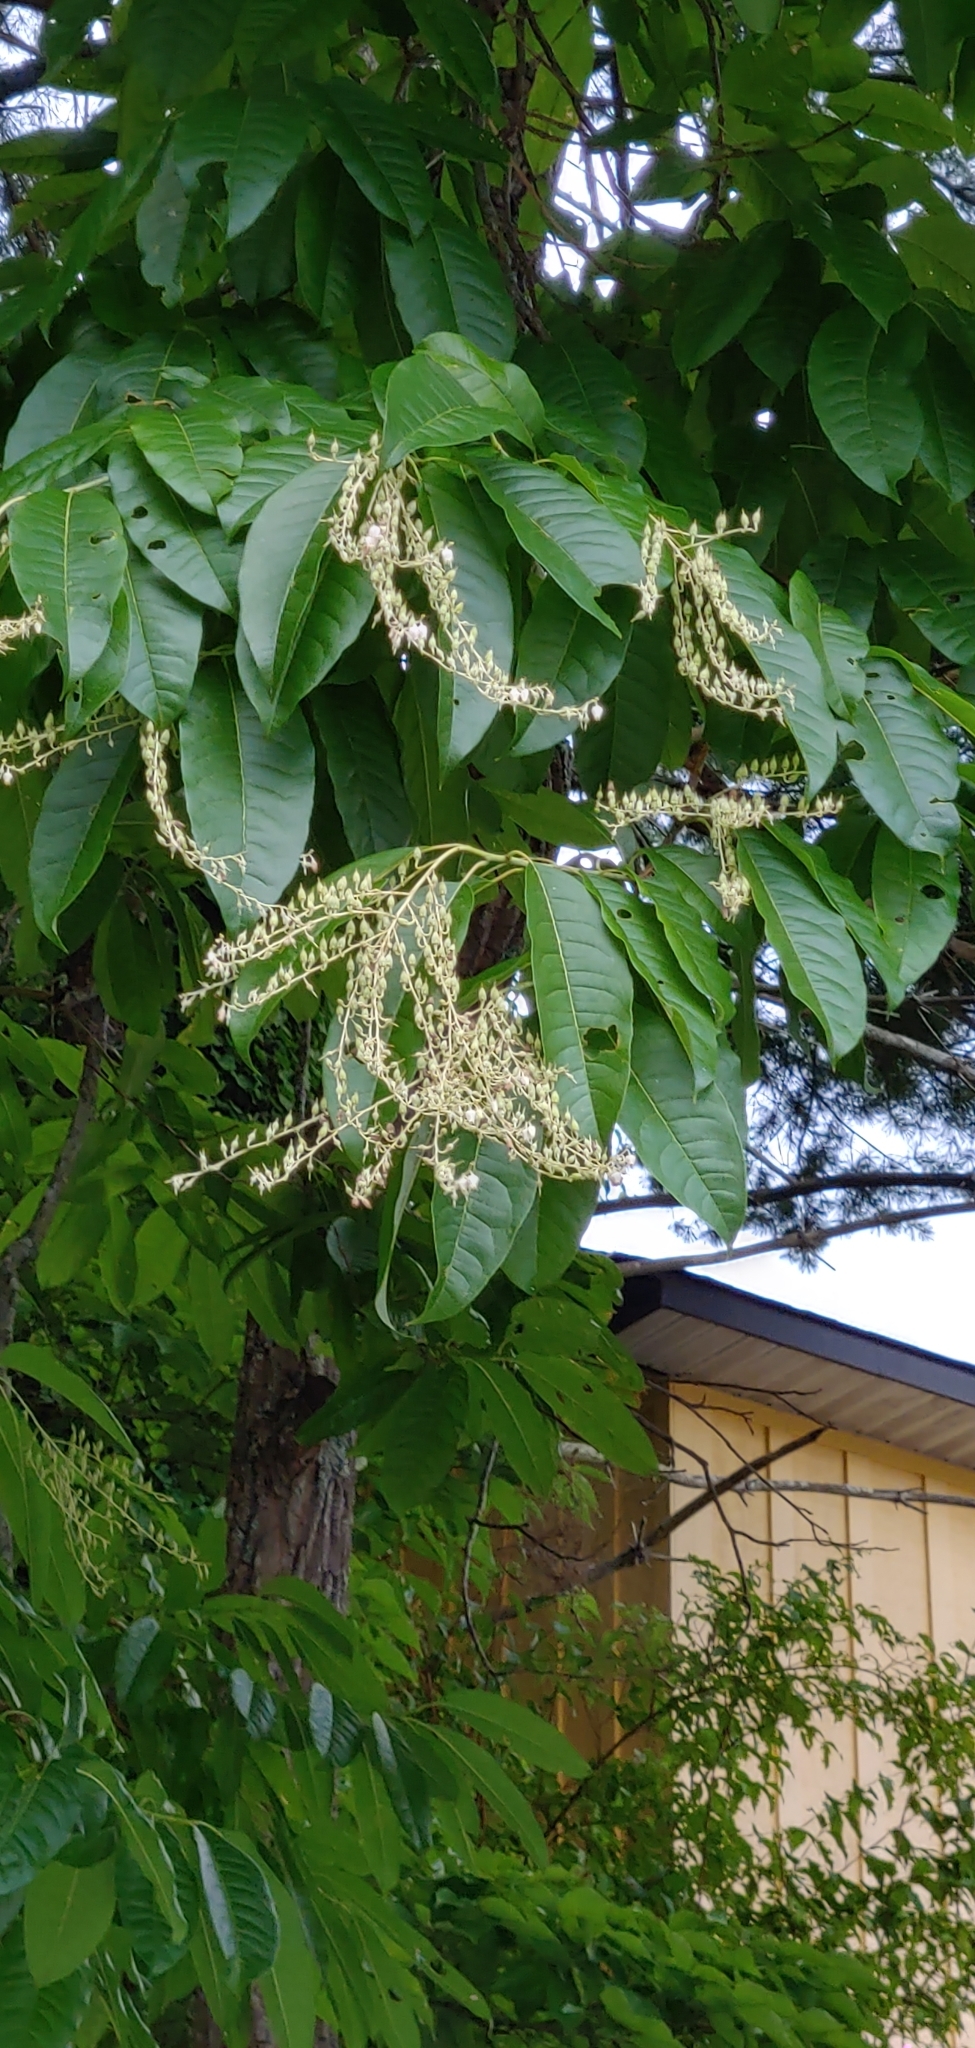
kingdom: Plantae
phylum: Tracheophyta
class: Magnoliopsida
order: Ericales
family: Ericaceae
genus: Oxydendrum
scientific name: Oxydendrum arboreum
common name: Sourwood
